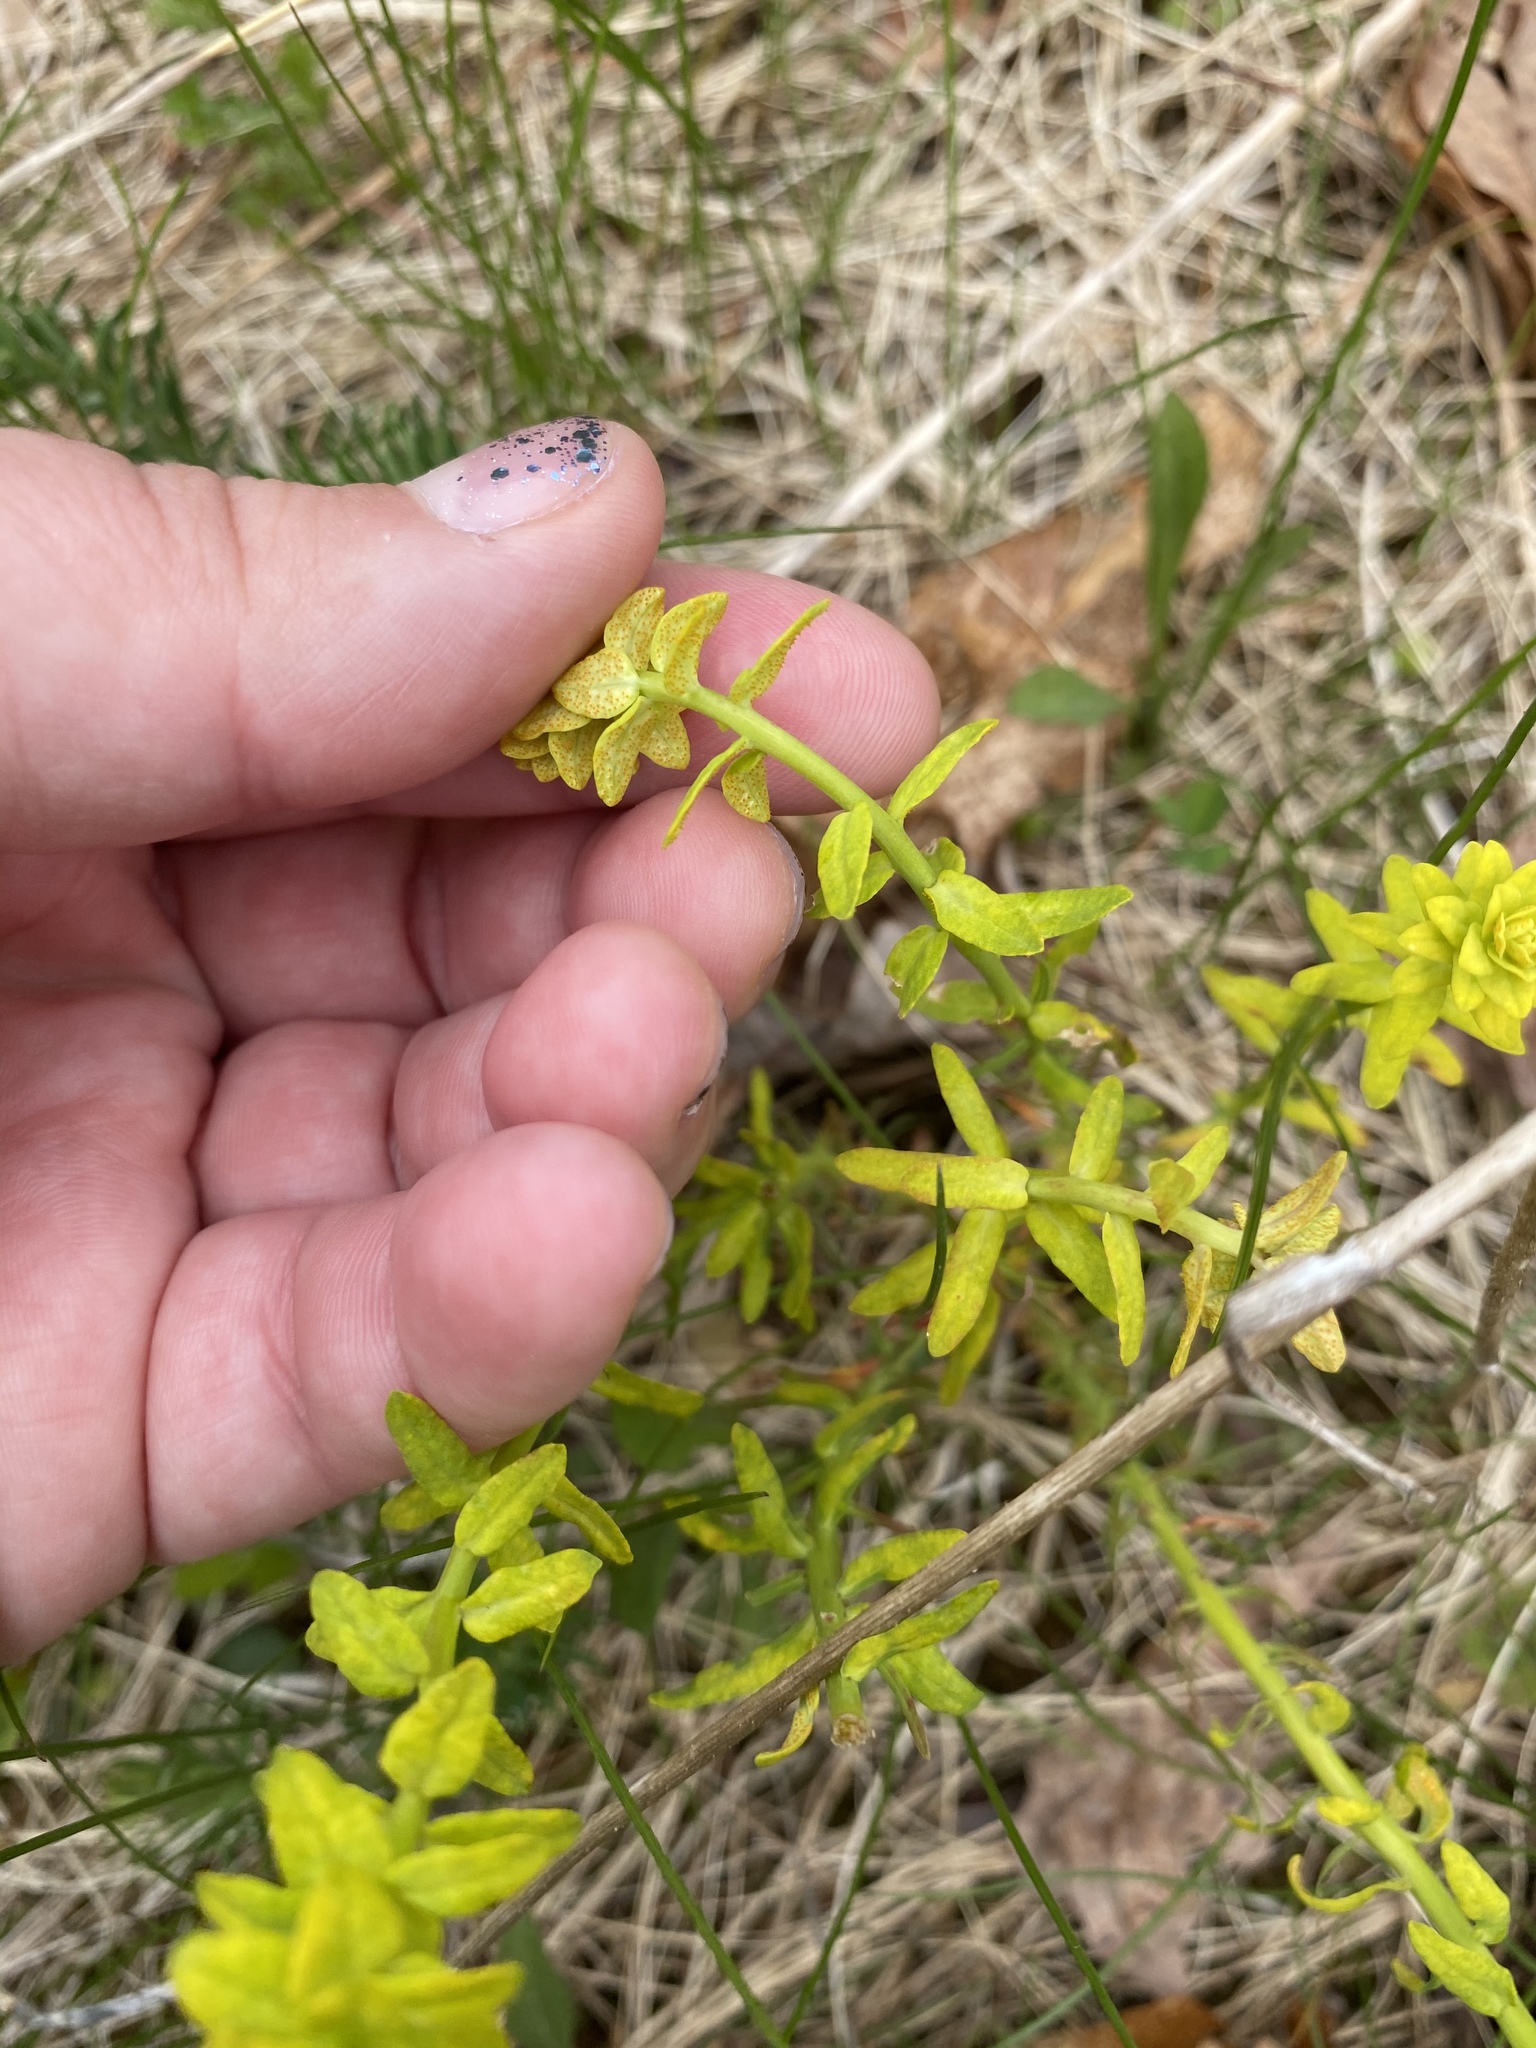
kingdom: Fungi
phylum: Basidiomycota
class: Pucciniomycetes
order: Pucciniales
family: Pucciniaceae
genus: Uromyces
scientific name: Uromyces
